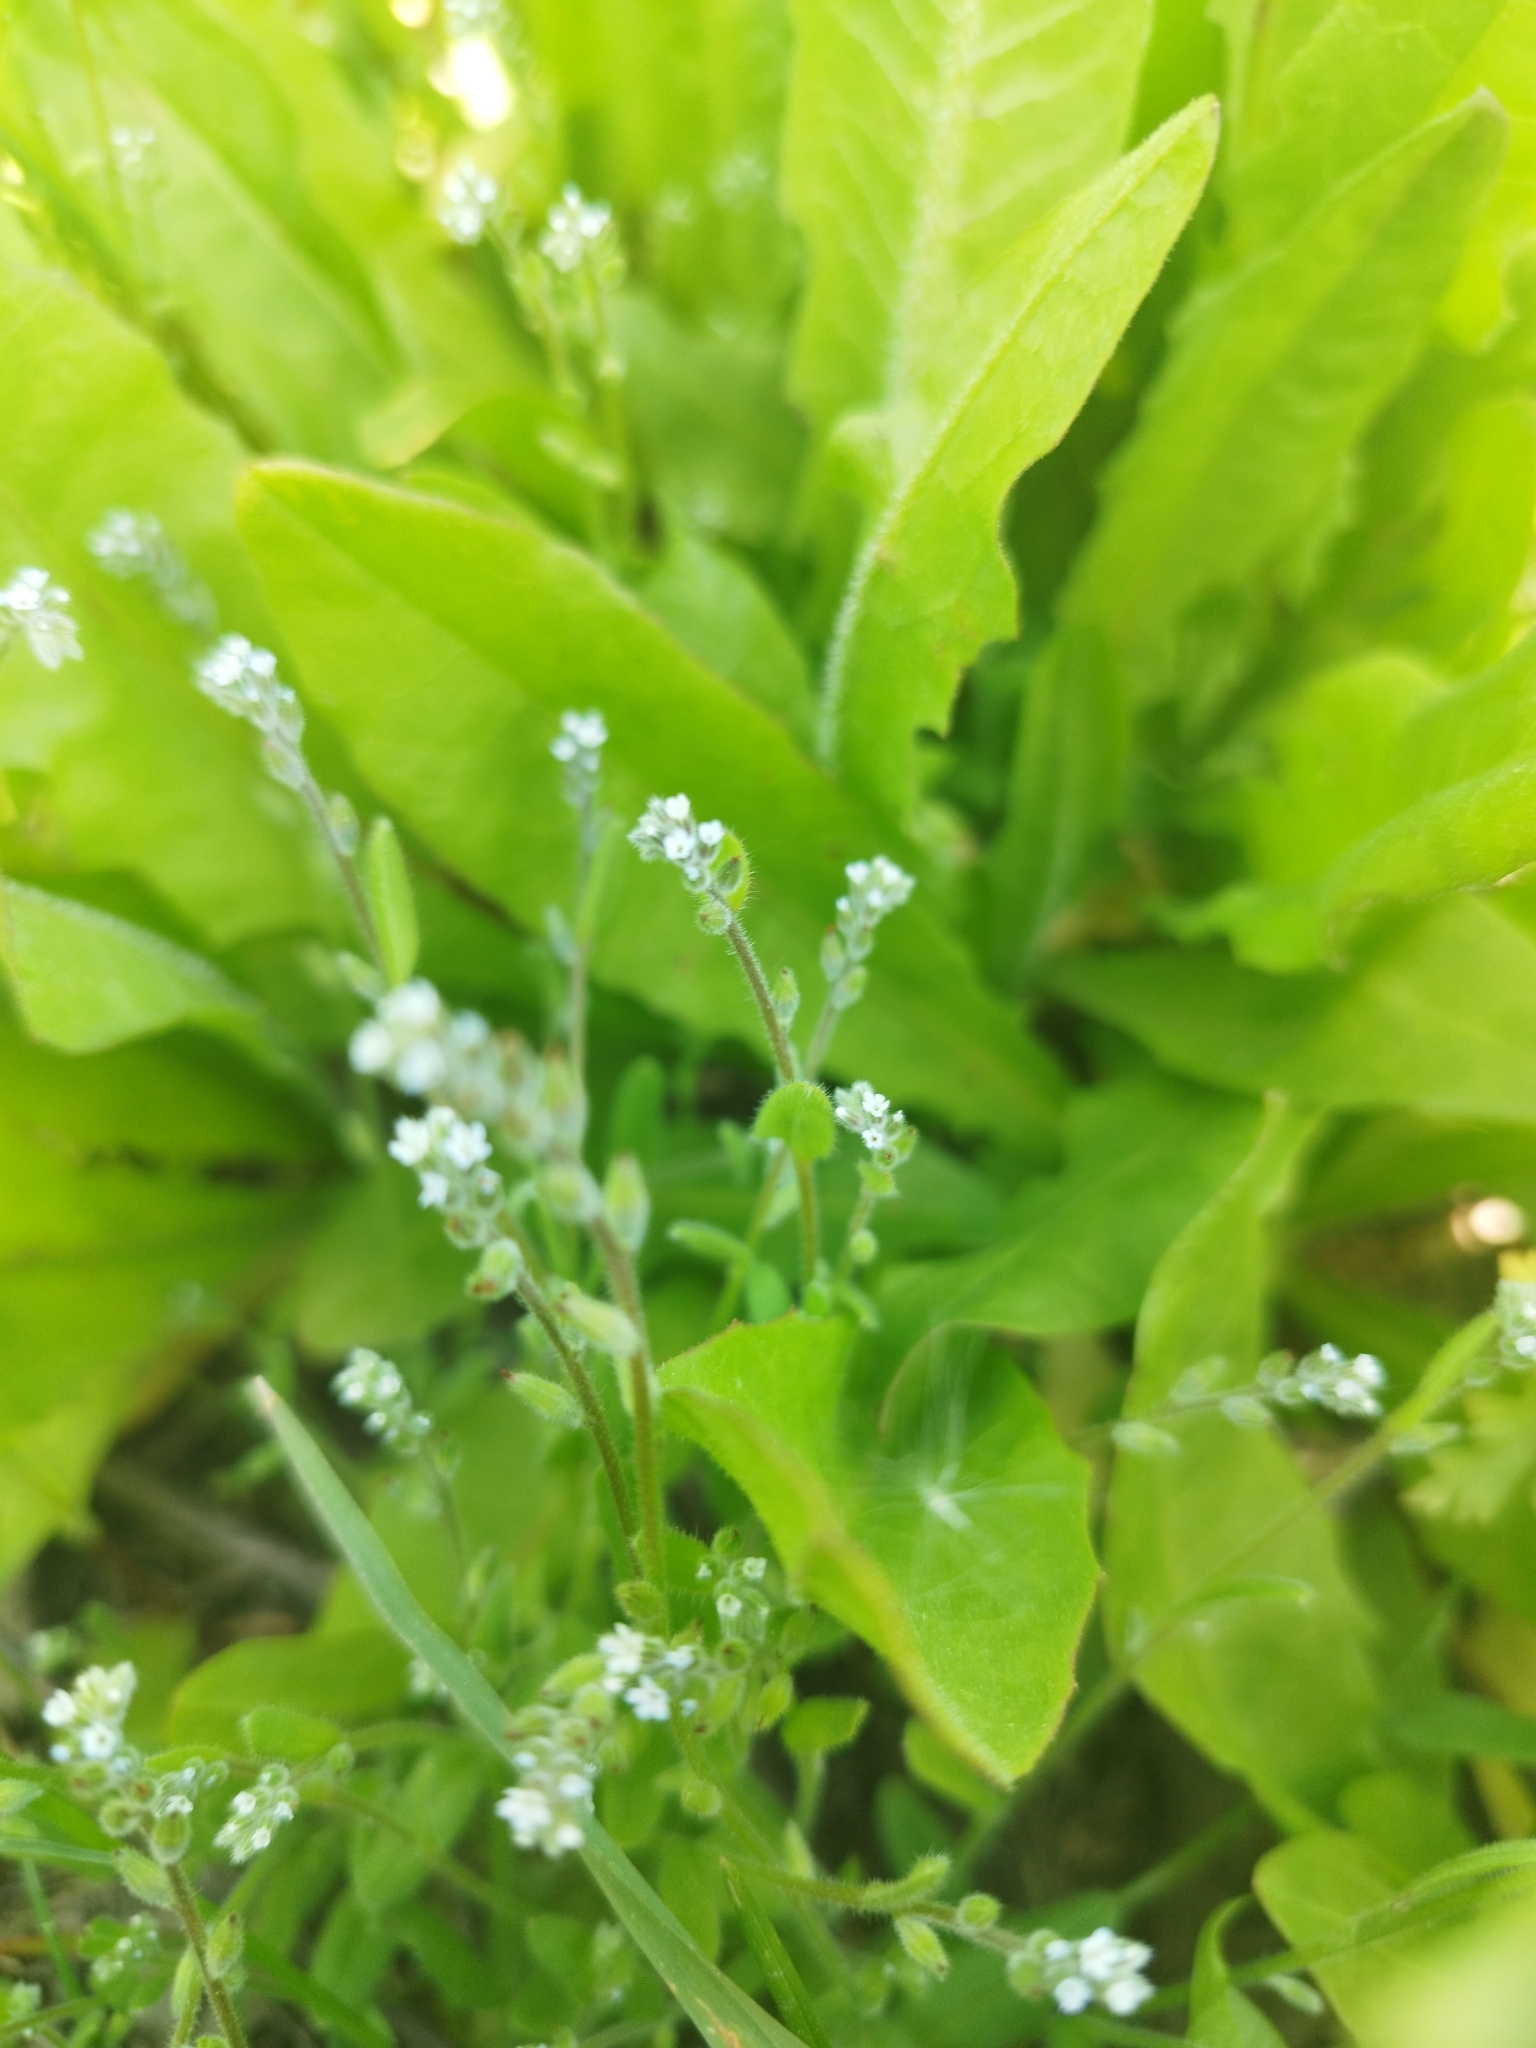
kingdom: Plantae
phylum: Tracheophyta
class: Magnoliopsida
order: Boraginales
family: Boraginaceae
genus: Myosotis
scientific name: Myosotis stricta
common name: Strict forget-me-not
